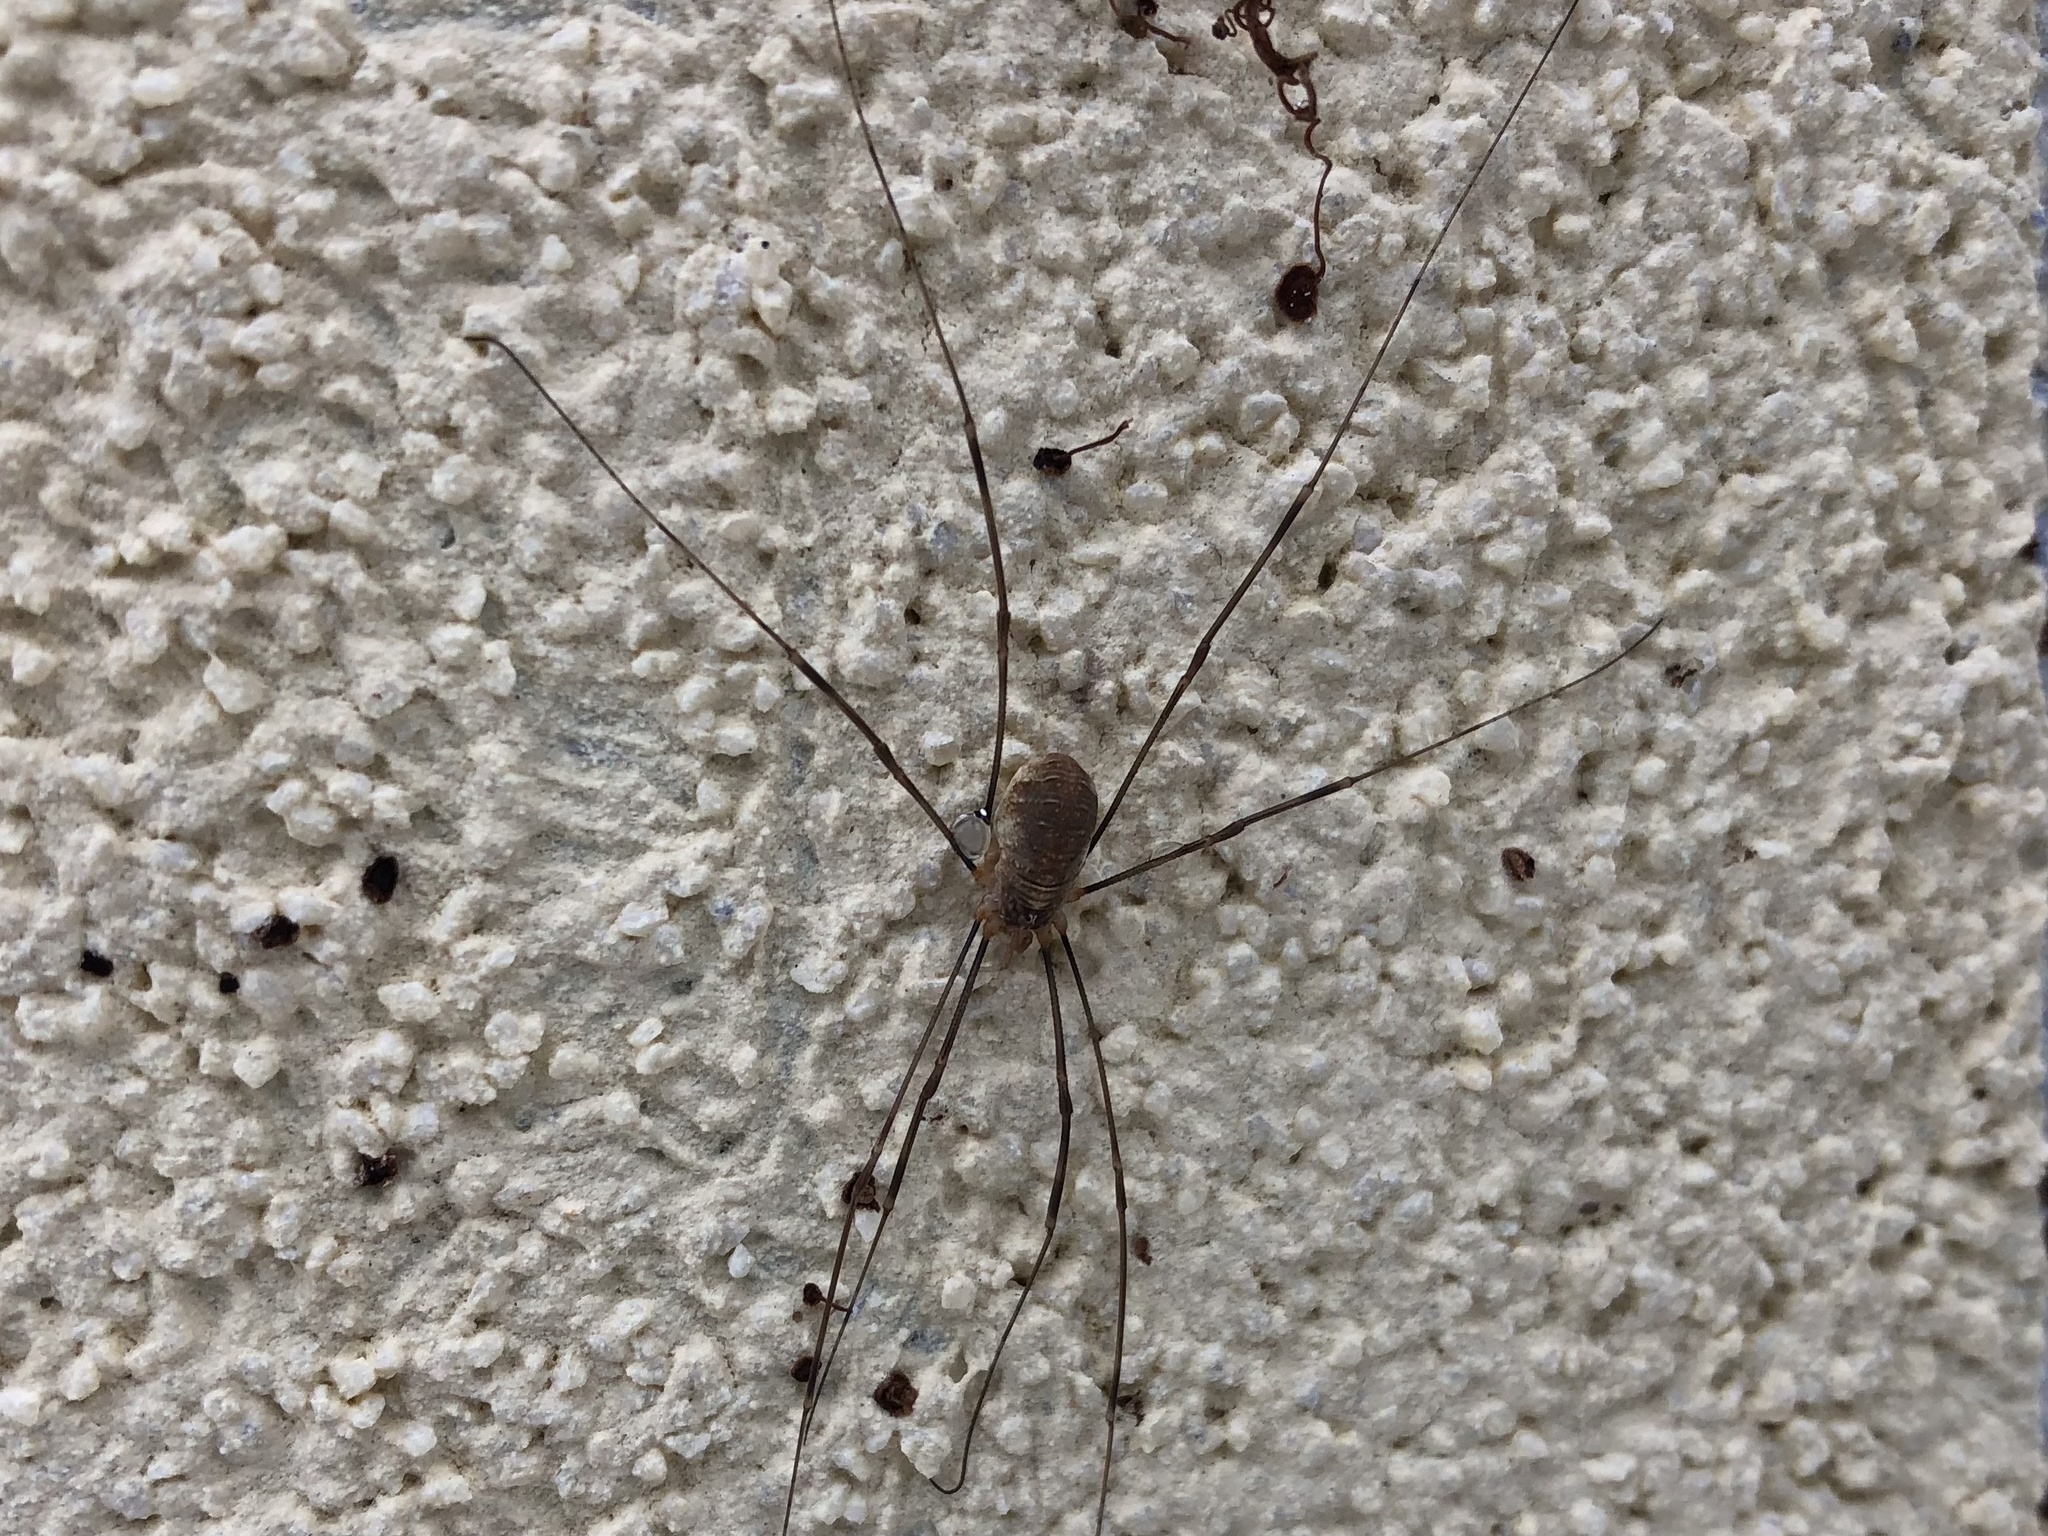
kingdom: Animalia
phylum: Arthropoda
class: Arachnida
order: Opiliones
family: Phalangiidae
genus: Opilio
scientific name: Opilio canestrinii
